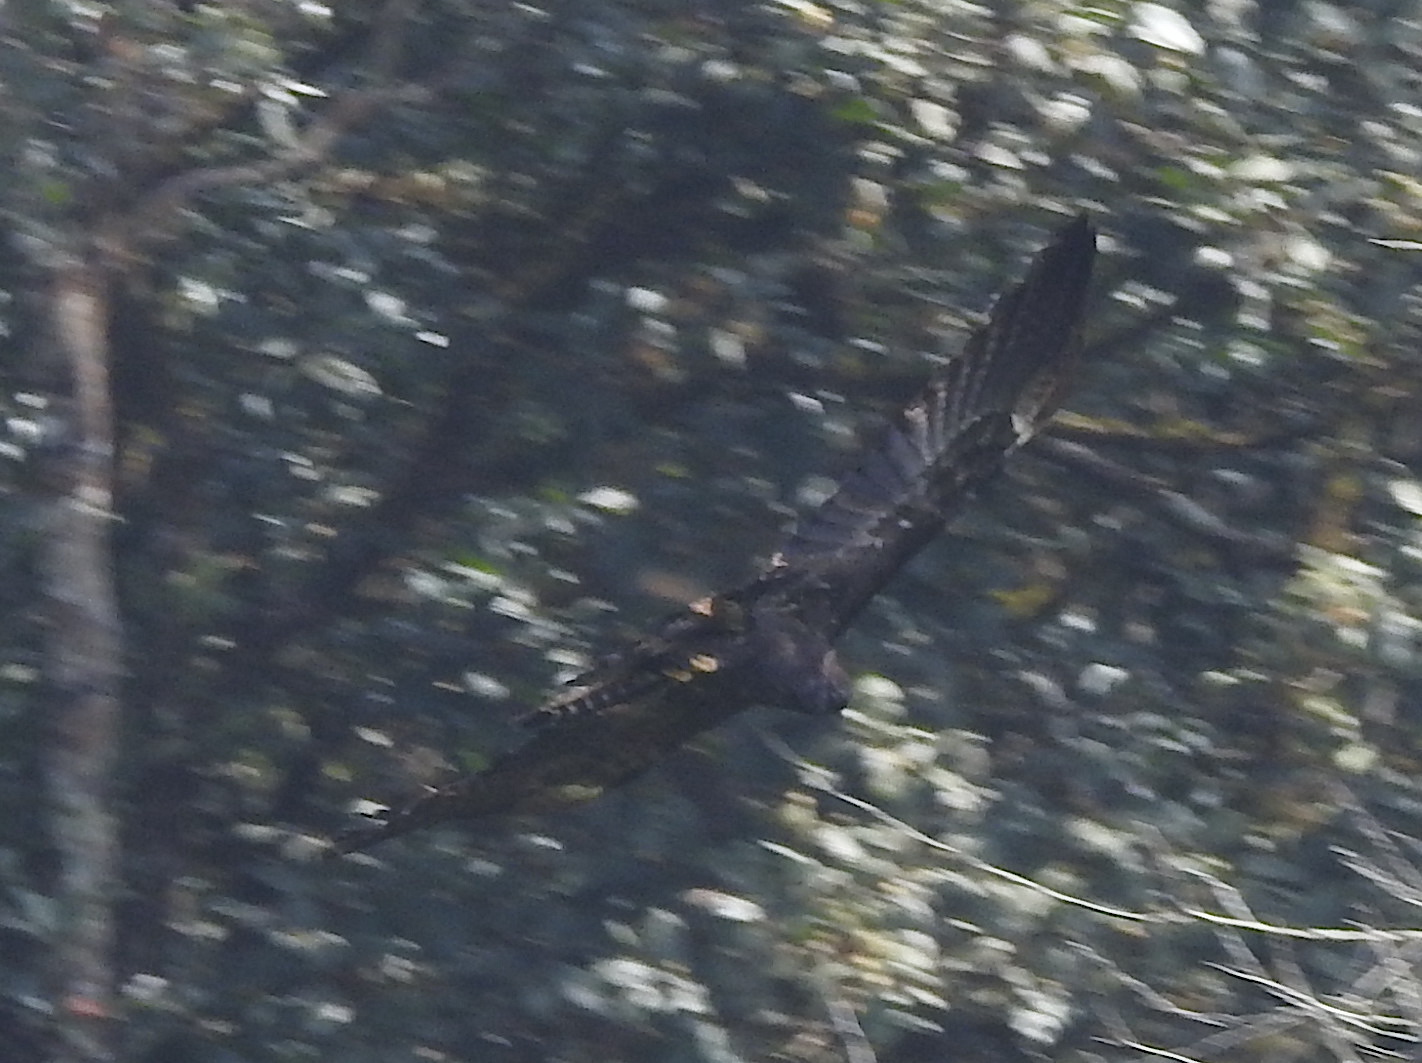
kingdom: Animalia
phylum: Chordata
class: Aves
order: Accipitriformes
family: Accipitridae
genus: Ictinaetus
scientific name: Ictinaetus malayensis
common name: Black eagle
